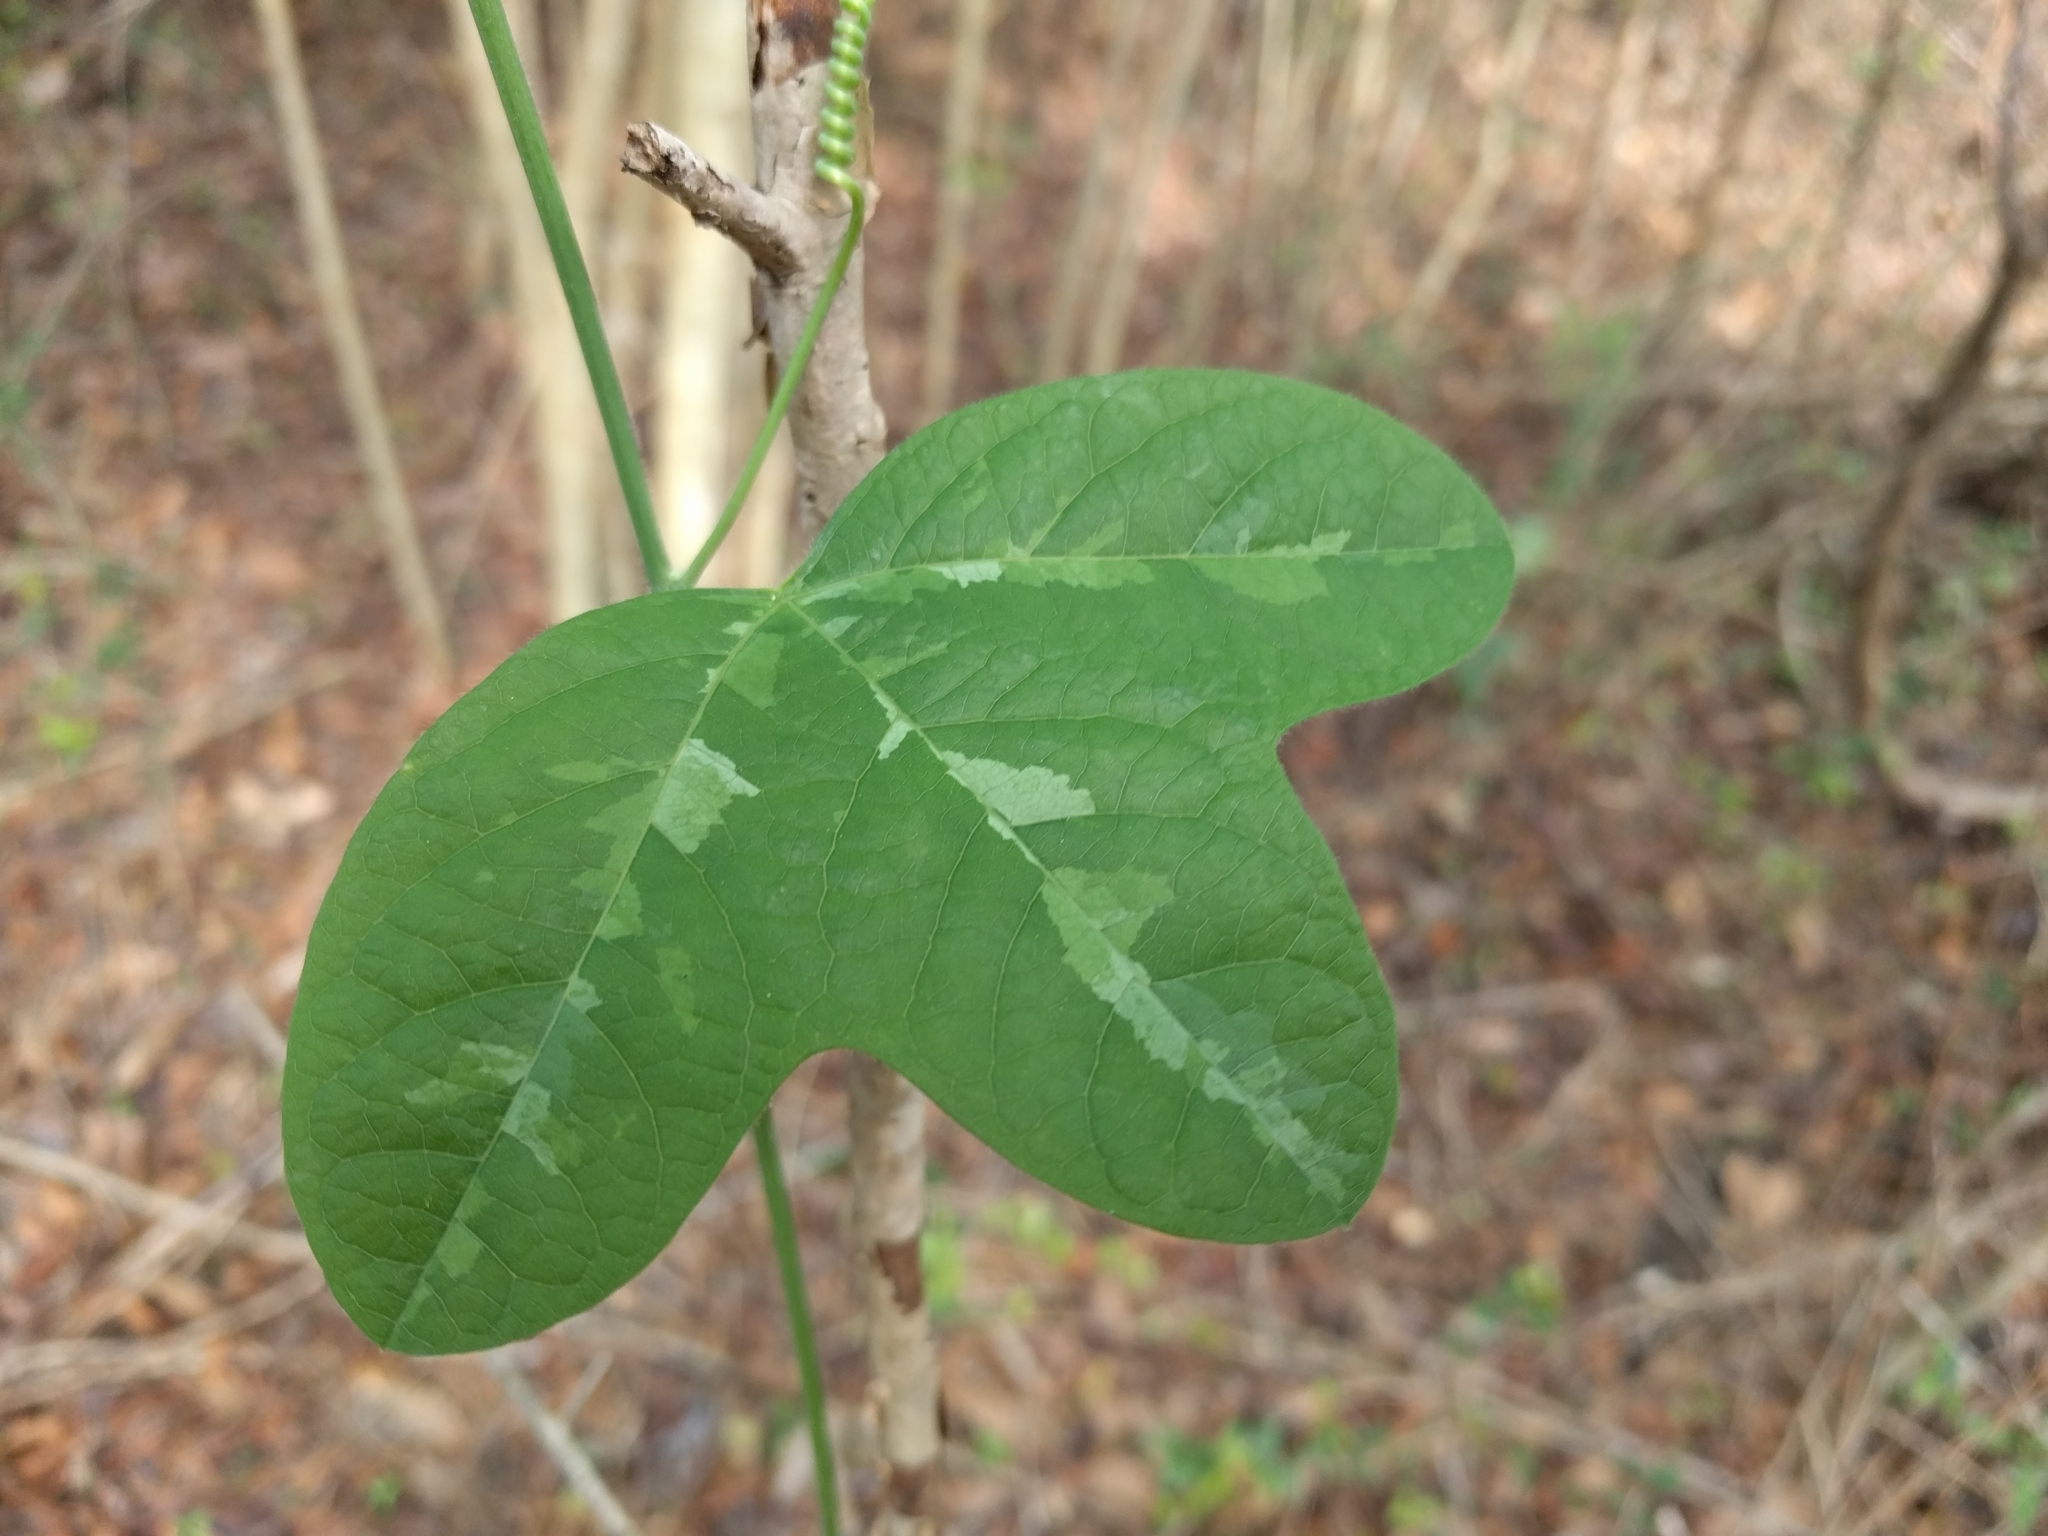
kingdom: Plantae
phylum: Tracheophyta
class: Magnoliopsida
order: Malpighiales
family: Passifloraceae
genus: Passiflora
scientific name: Passiflora lutea
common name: Yellow passionflower
